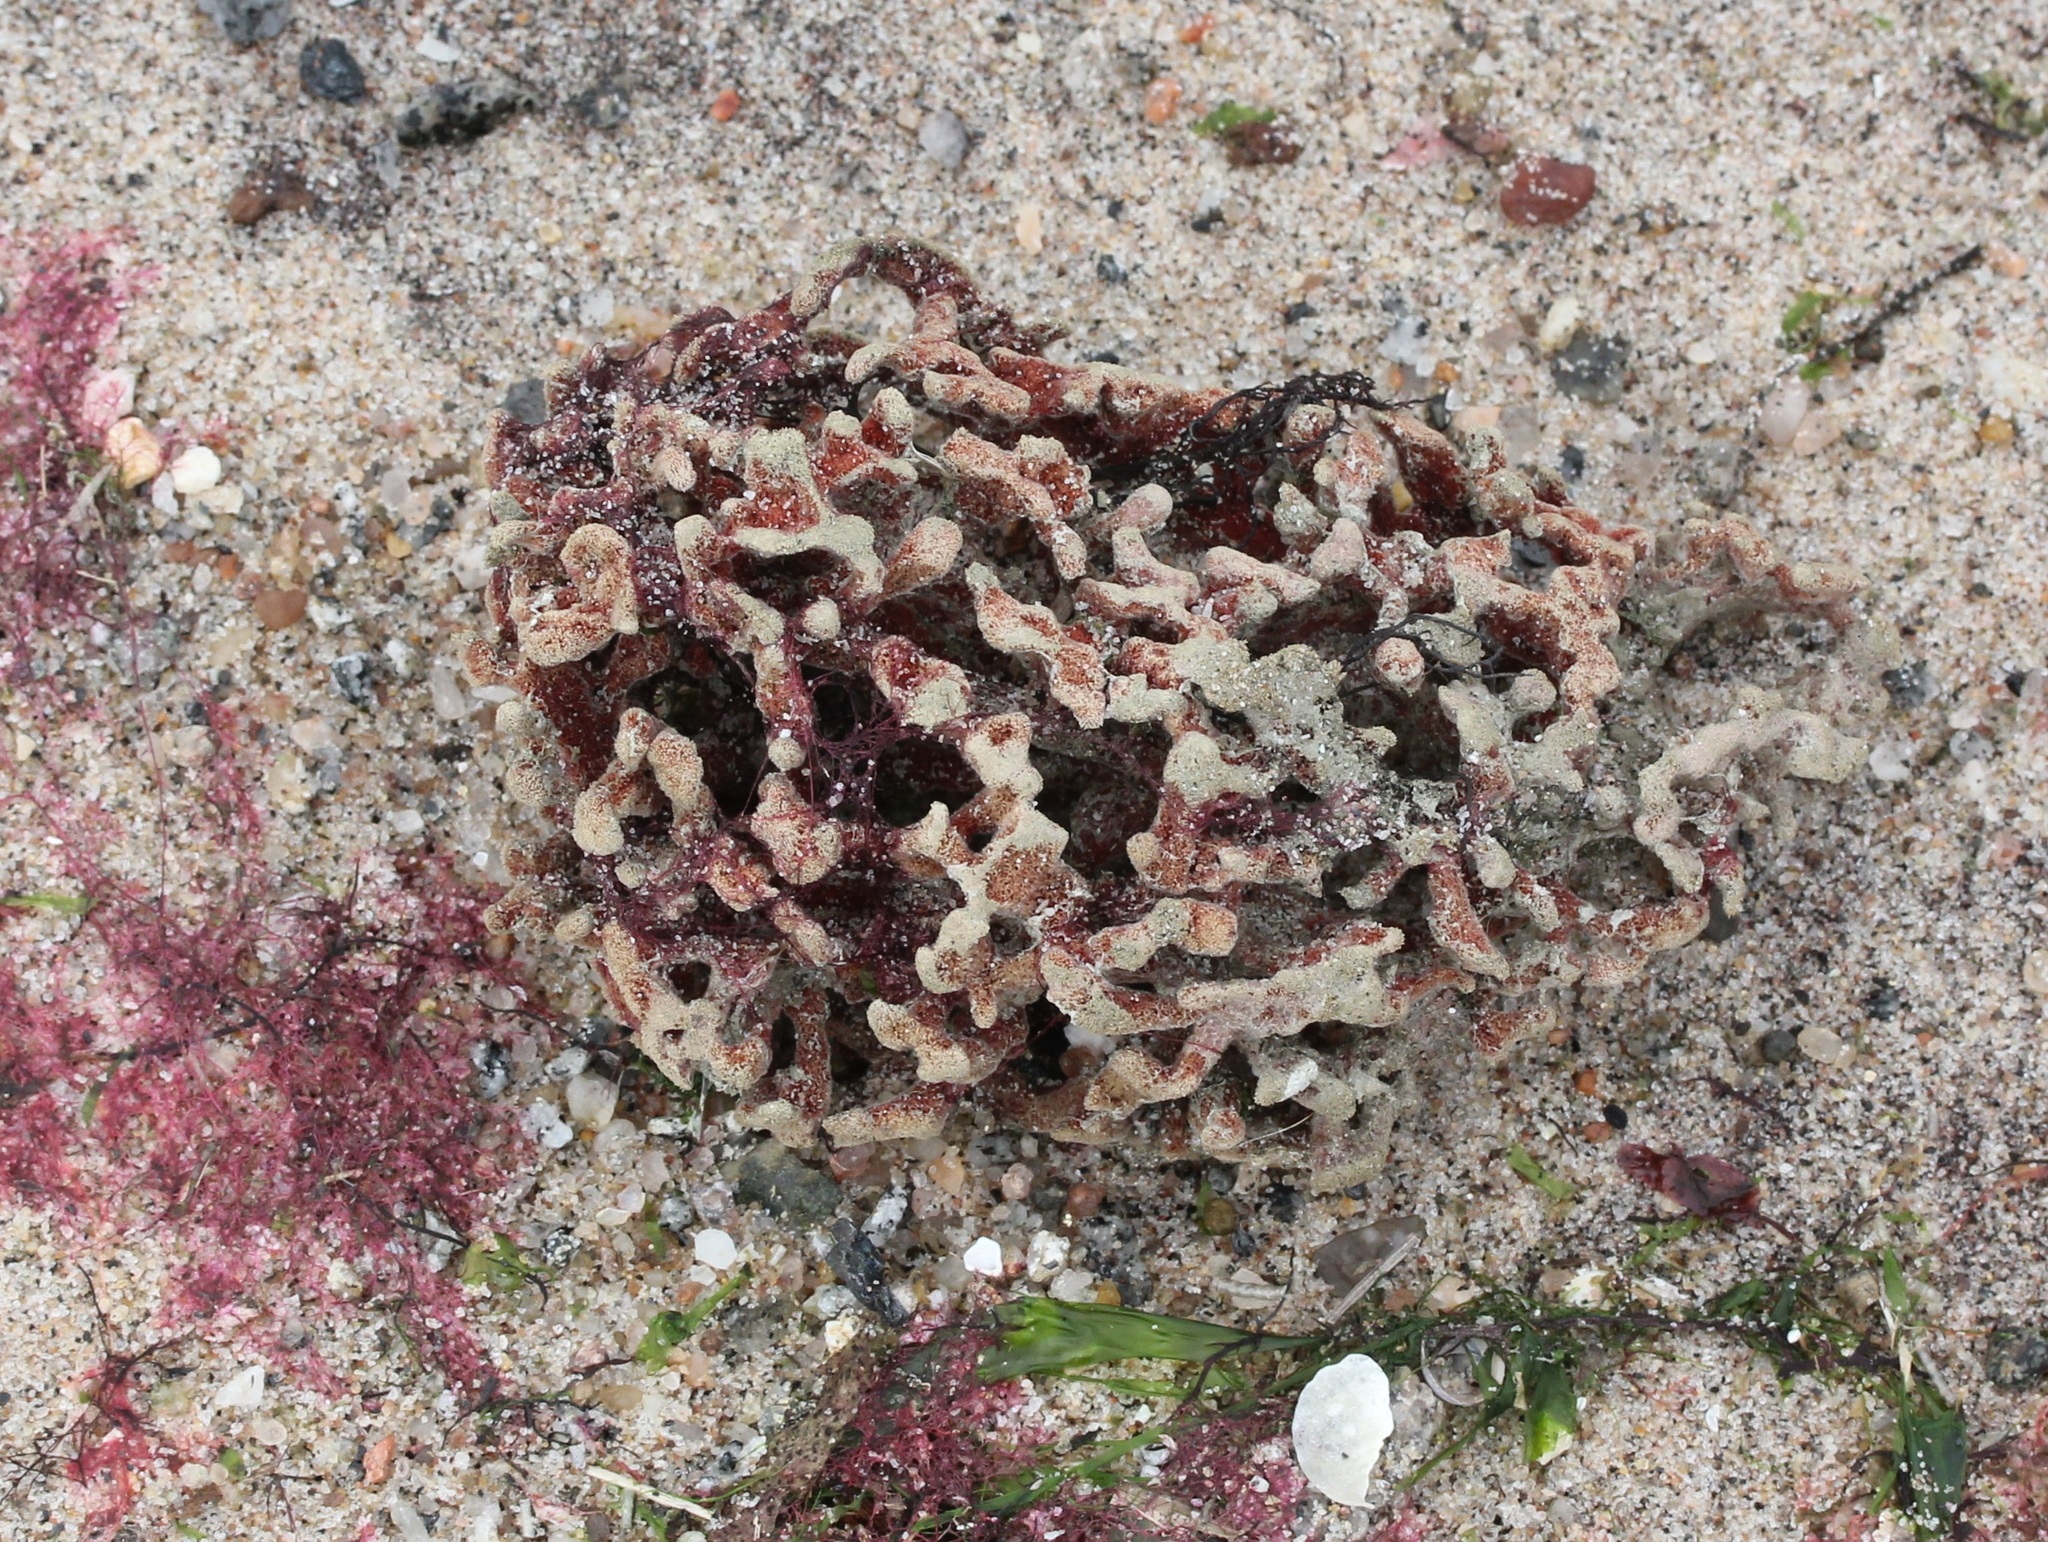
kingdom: Animalia
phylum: Porifera
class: Demospongiae
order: Poecilosclerida
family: Microcionidae
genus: Clathria
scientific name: Clathria prolifera
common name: Red beard sponge
